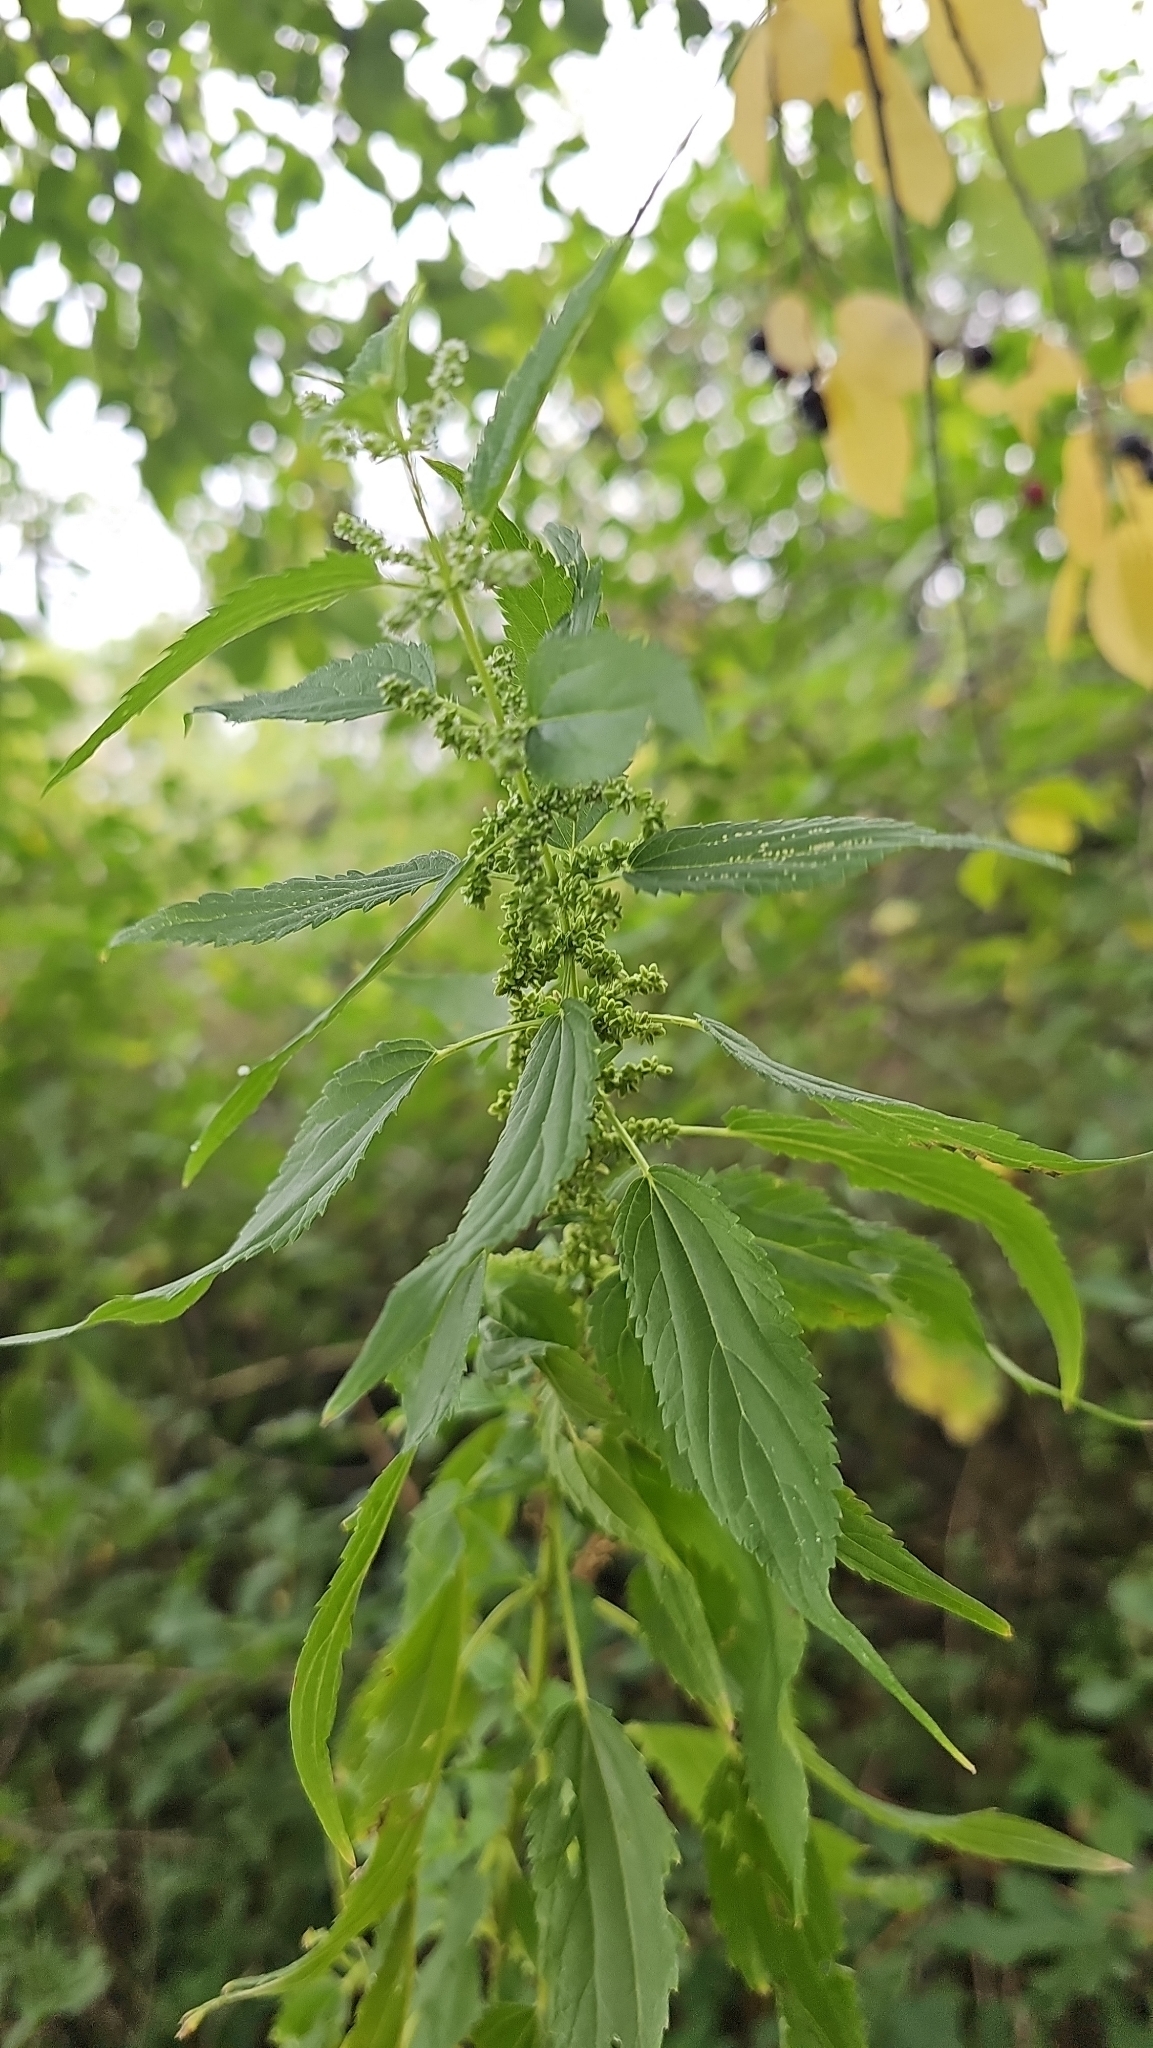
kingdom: Plantae
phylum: Tracheophyta
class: Magnoliopsida
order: Rosales
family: Urticaceae
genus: Urtica
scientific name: Urtica gracilis
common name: Slender stinging nettle
